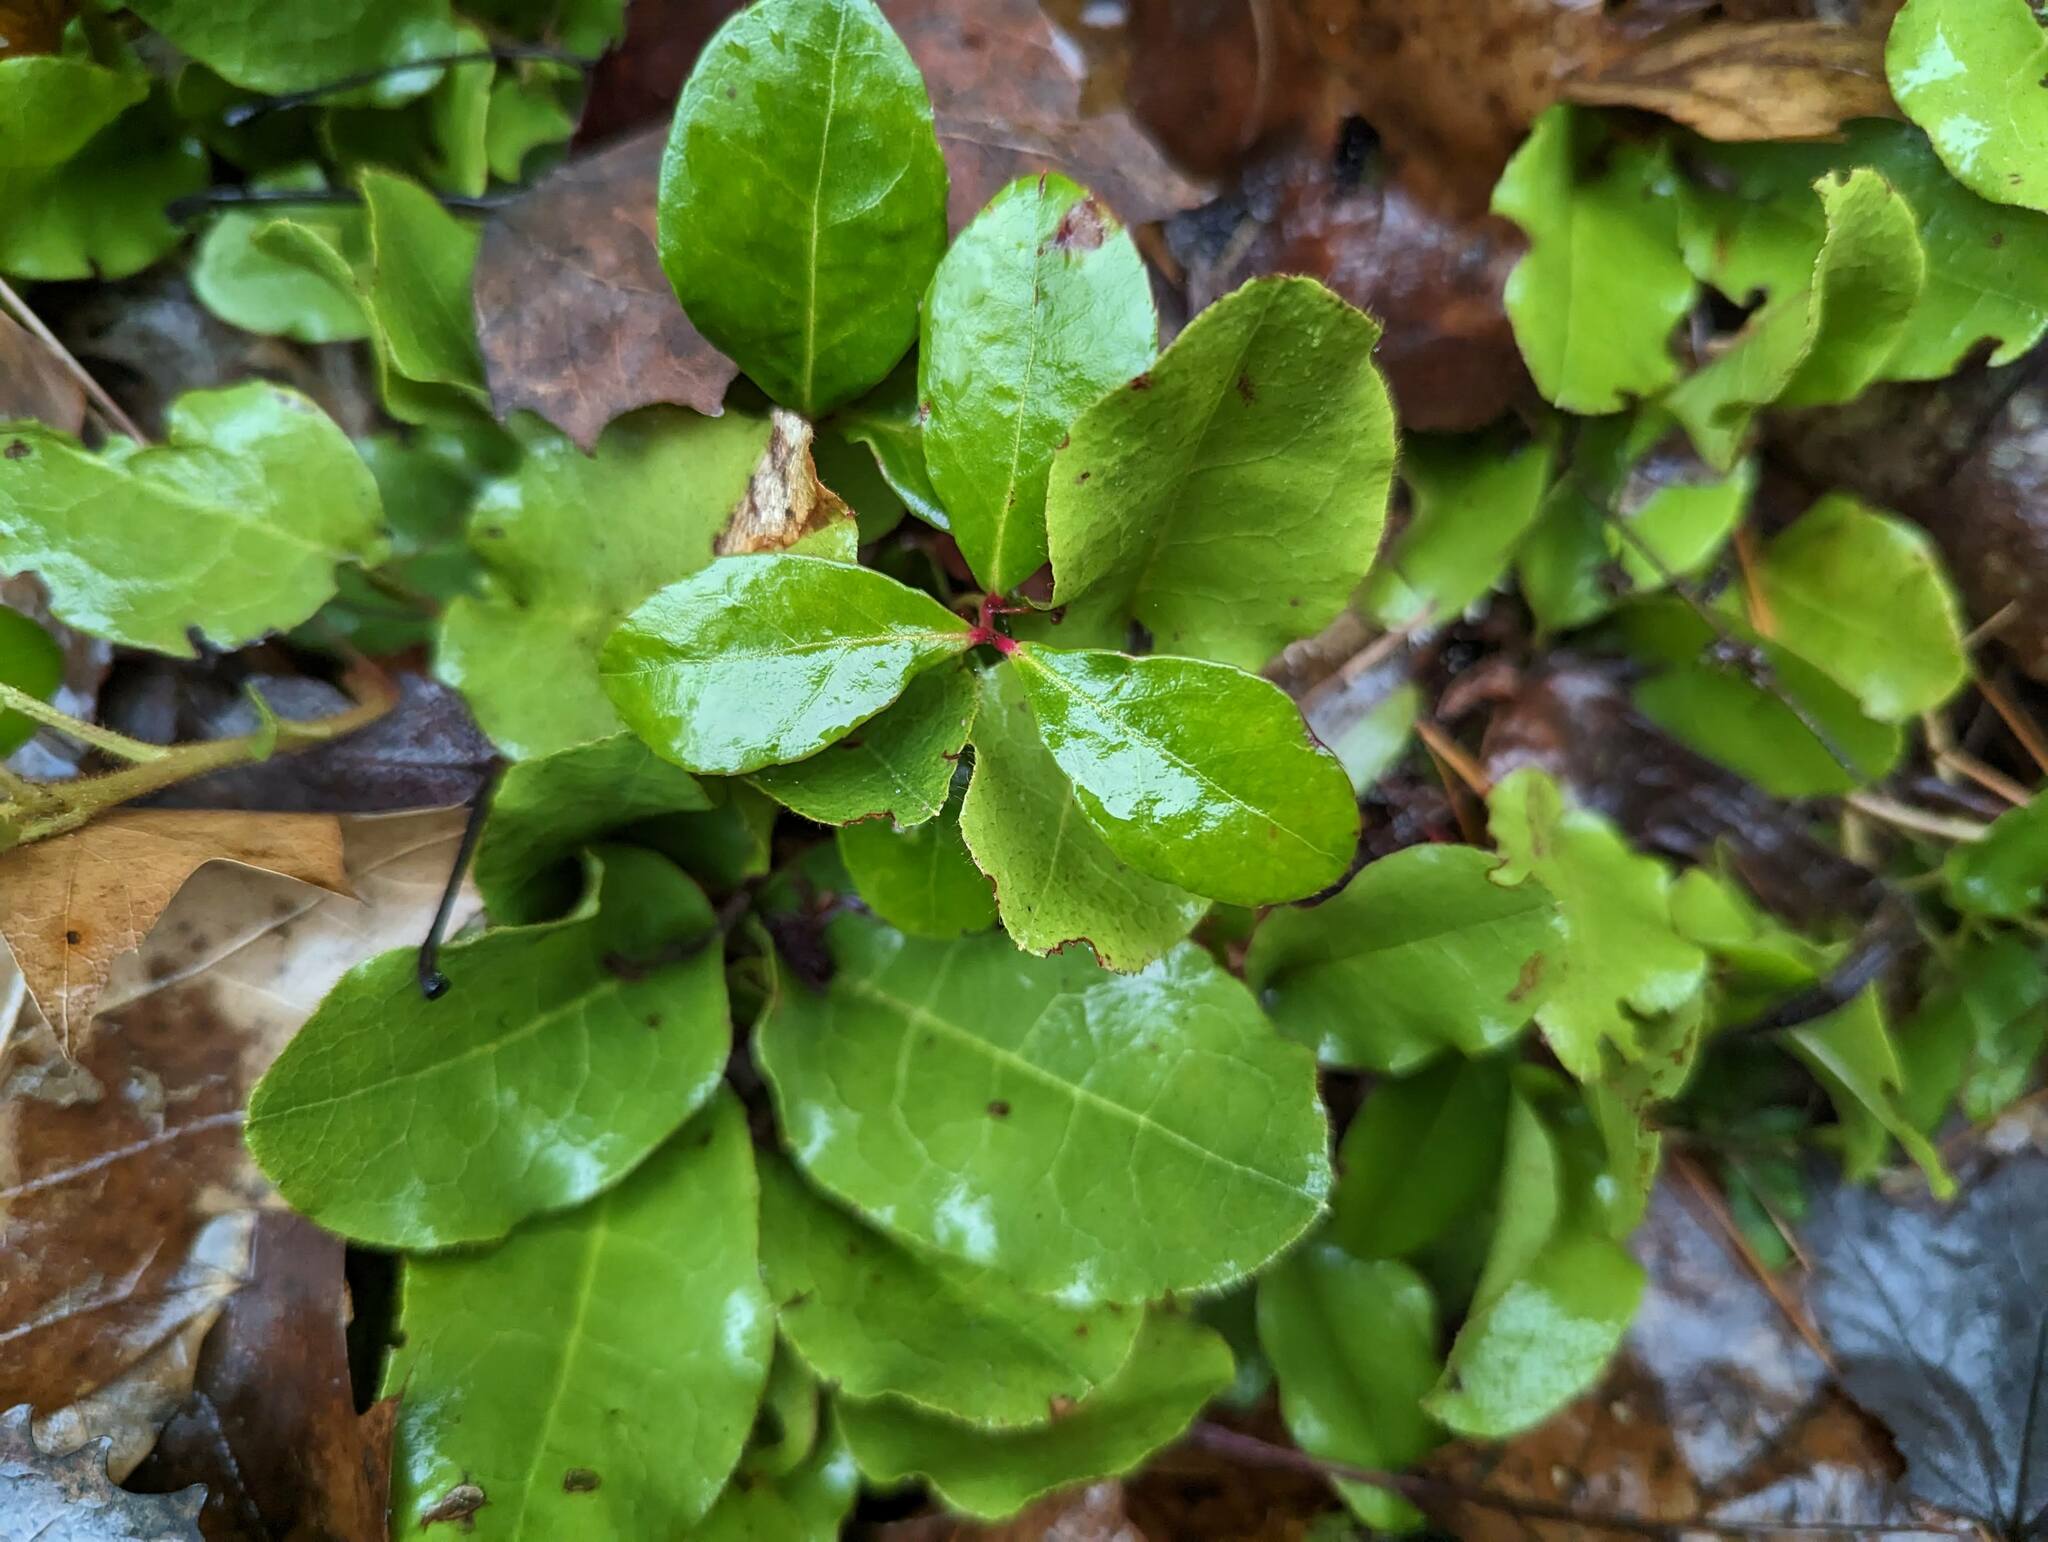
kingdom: Plantae
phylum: Tracheophyta
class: Magnoliopsida
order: Ericales
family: Ericaceae
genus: Gaultheria
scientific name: Gaultheria procumbens
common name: Checkerberry
